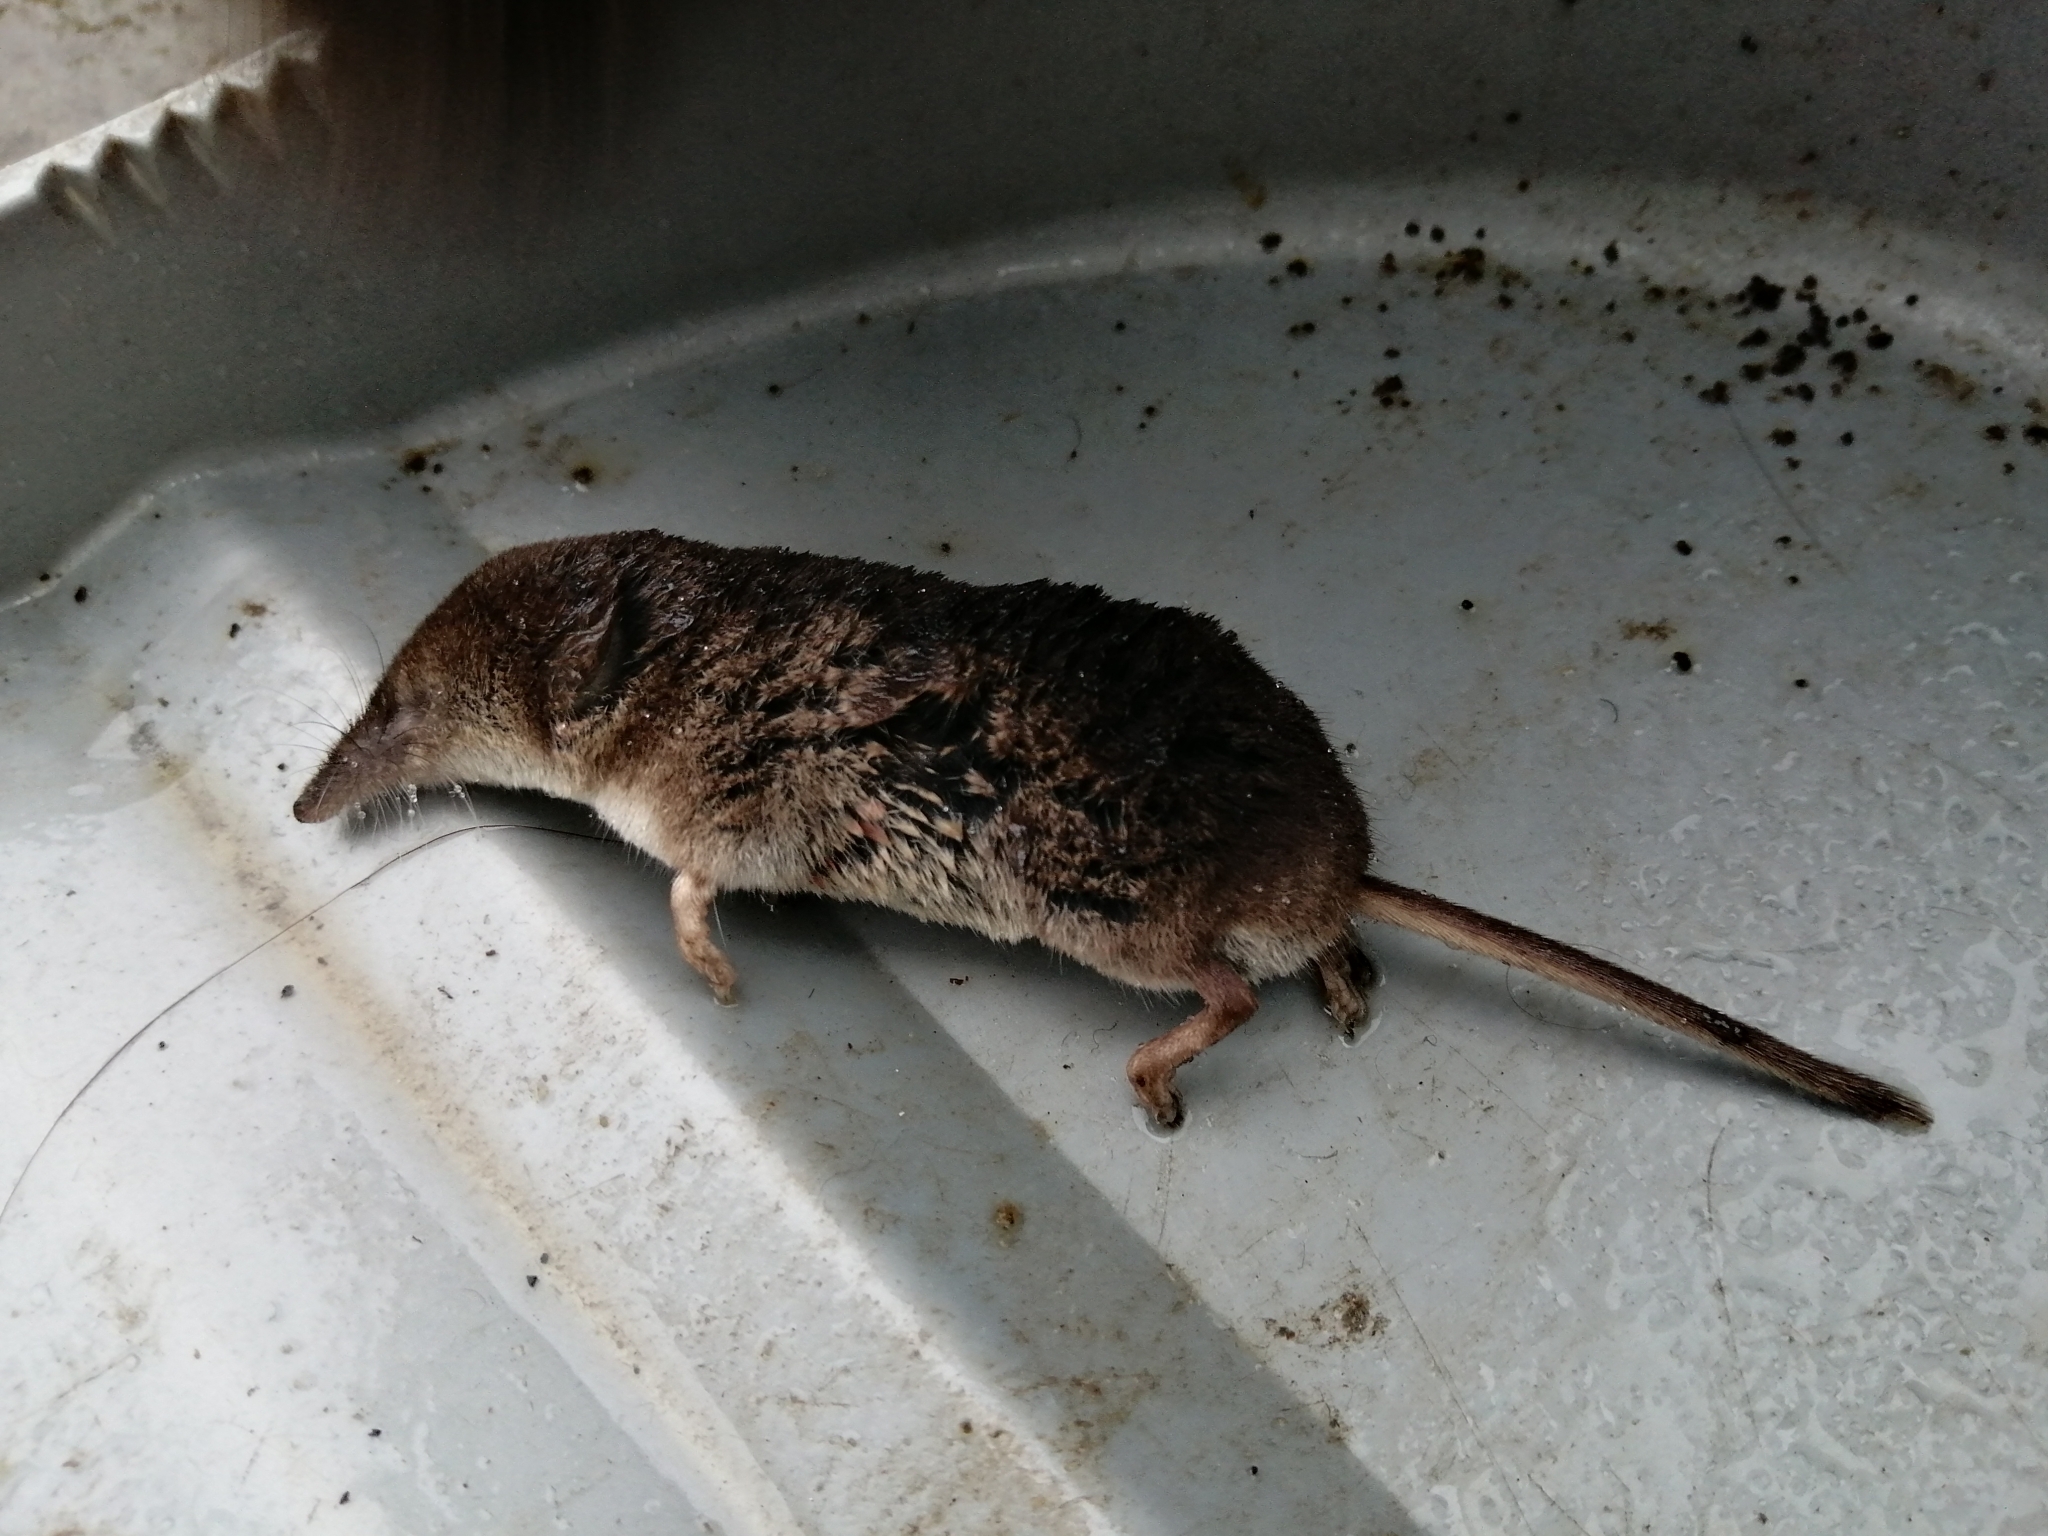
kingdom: Animalia
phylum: Chordata
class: Mammalia
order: Soricomorpha
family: Soricidae
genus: Sorex
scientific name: Sorex araneus
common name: Common shrew
